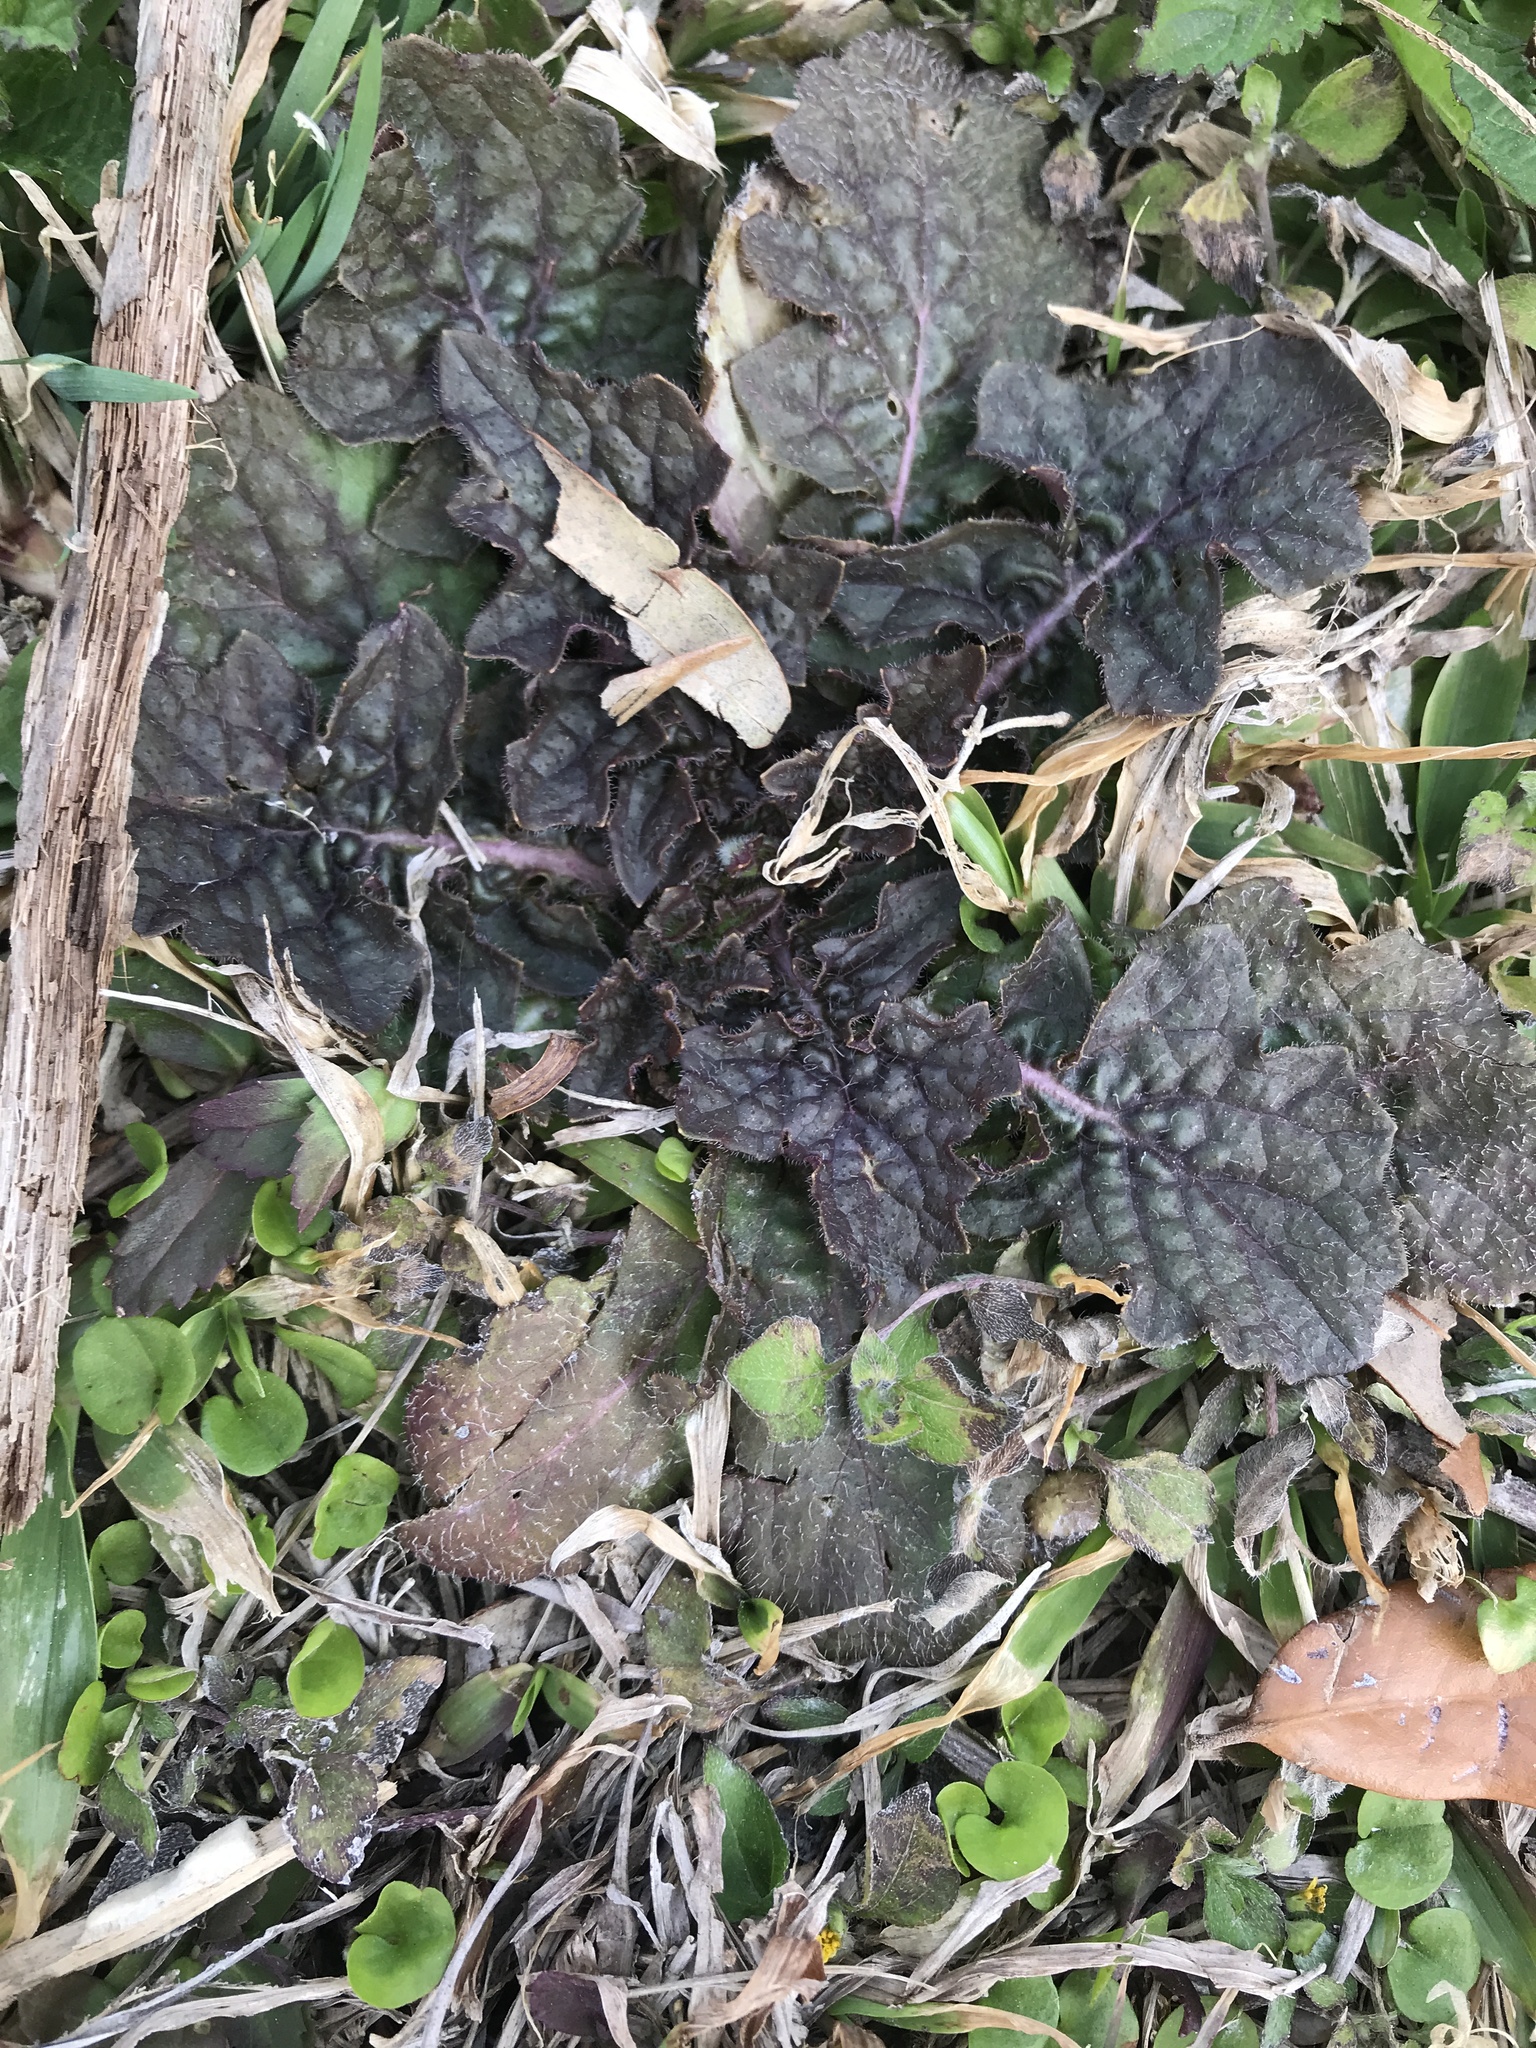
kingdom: Plantae
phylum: Tracheophyta
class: Magnoliopsida
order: Lamiales
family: Lamiaceae
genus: Salvia
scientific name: Salvia lyrata
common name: Cancerweed
